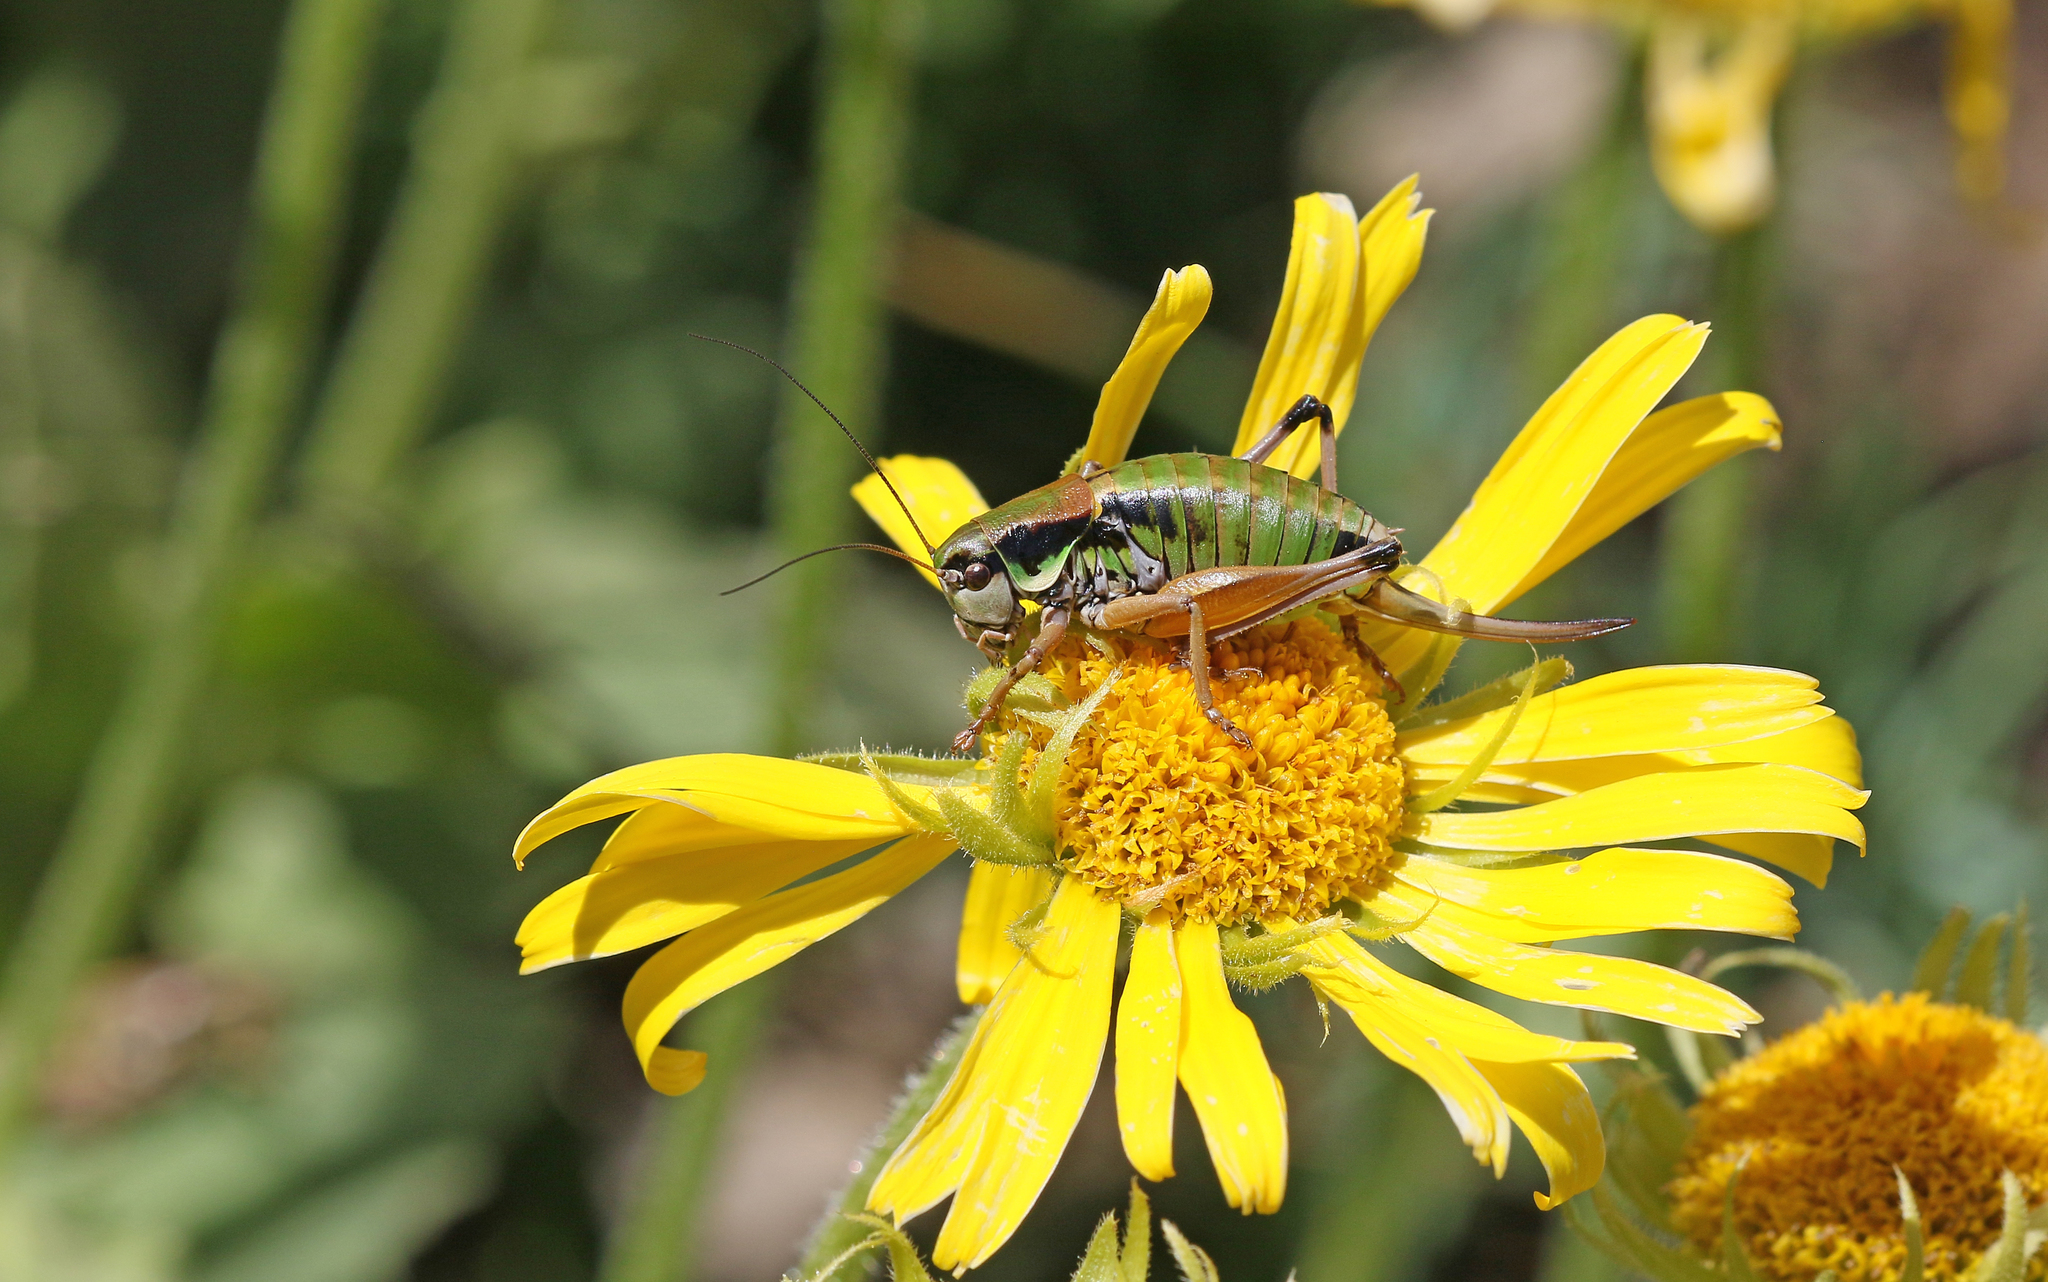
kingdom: Animalia
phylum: Arthropoda
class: Insecta
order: Orthoptera
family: Tettigoniidae
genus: Anonconotus
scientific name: Anonconotus occidentalis
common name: Western alpine bush-cricket
